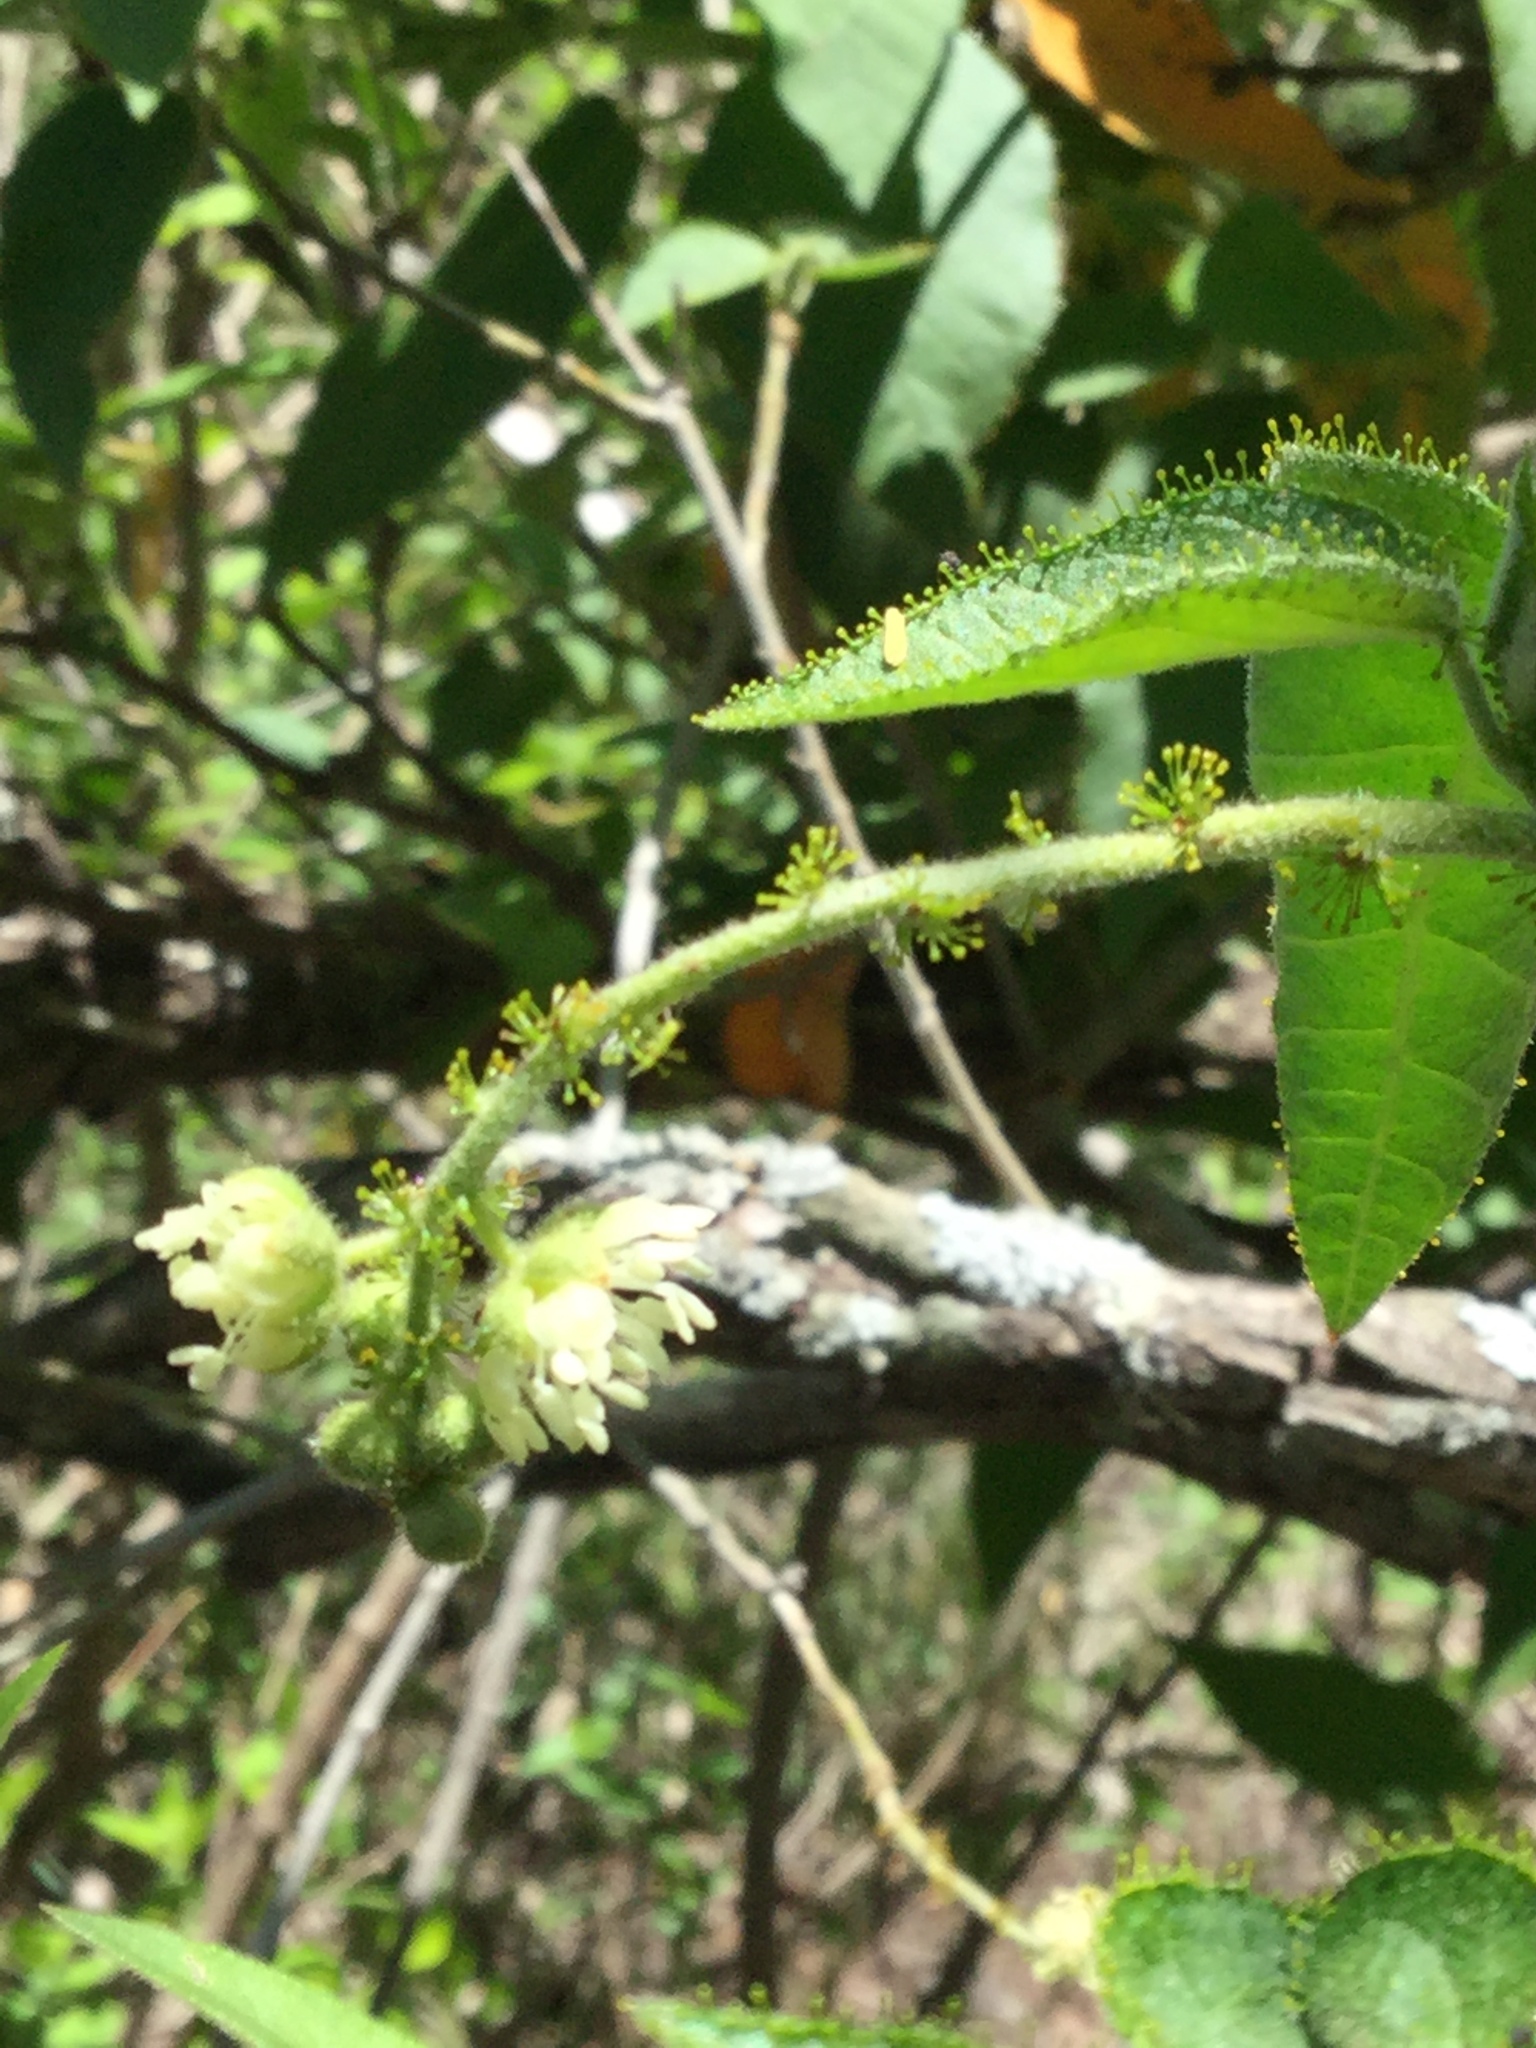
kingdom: Plantae
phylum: Tracheophyta
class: Magnoliopsida
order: Malpighiales
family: Euphorbiaceae
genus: Croton
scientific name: Croton ciliatoglandulifer
